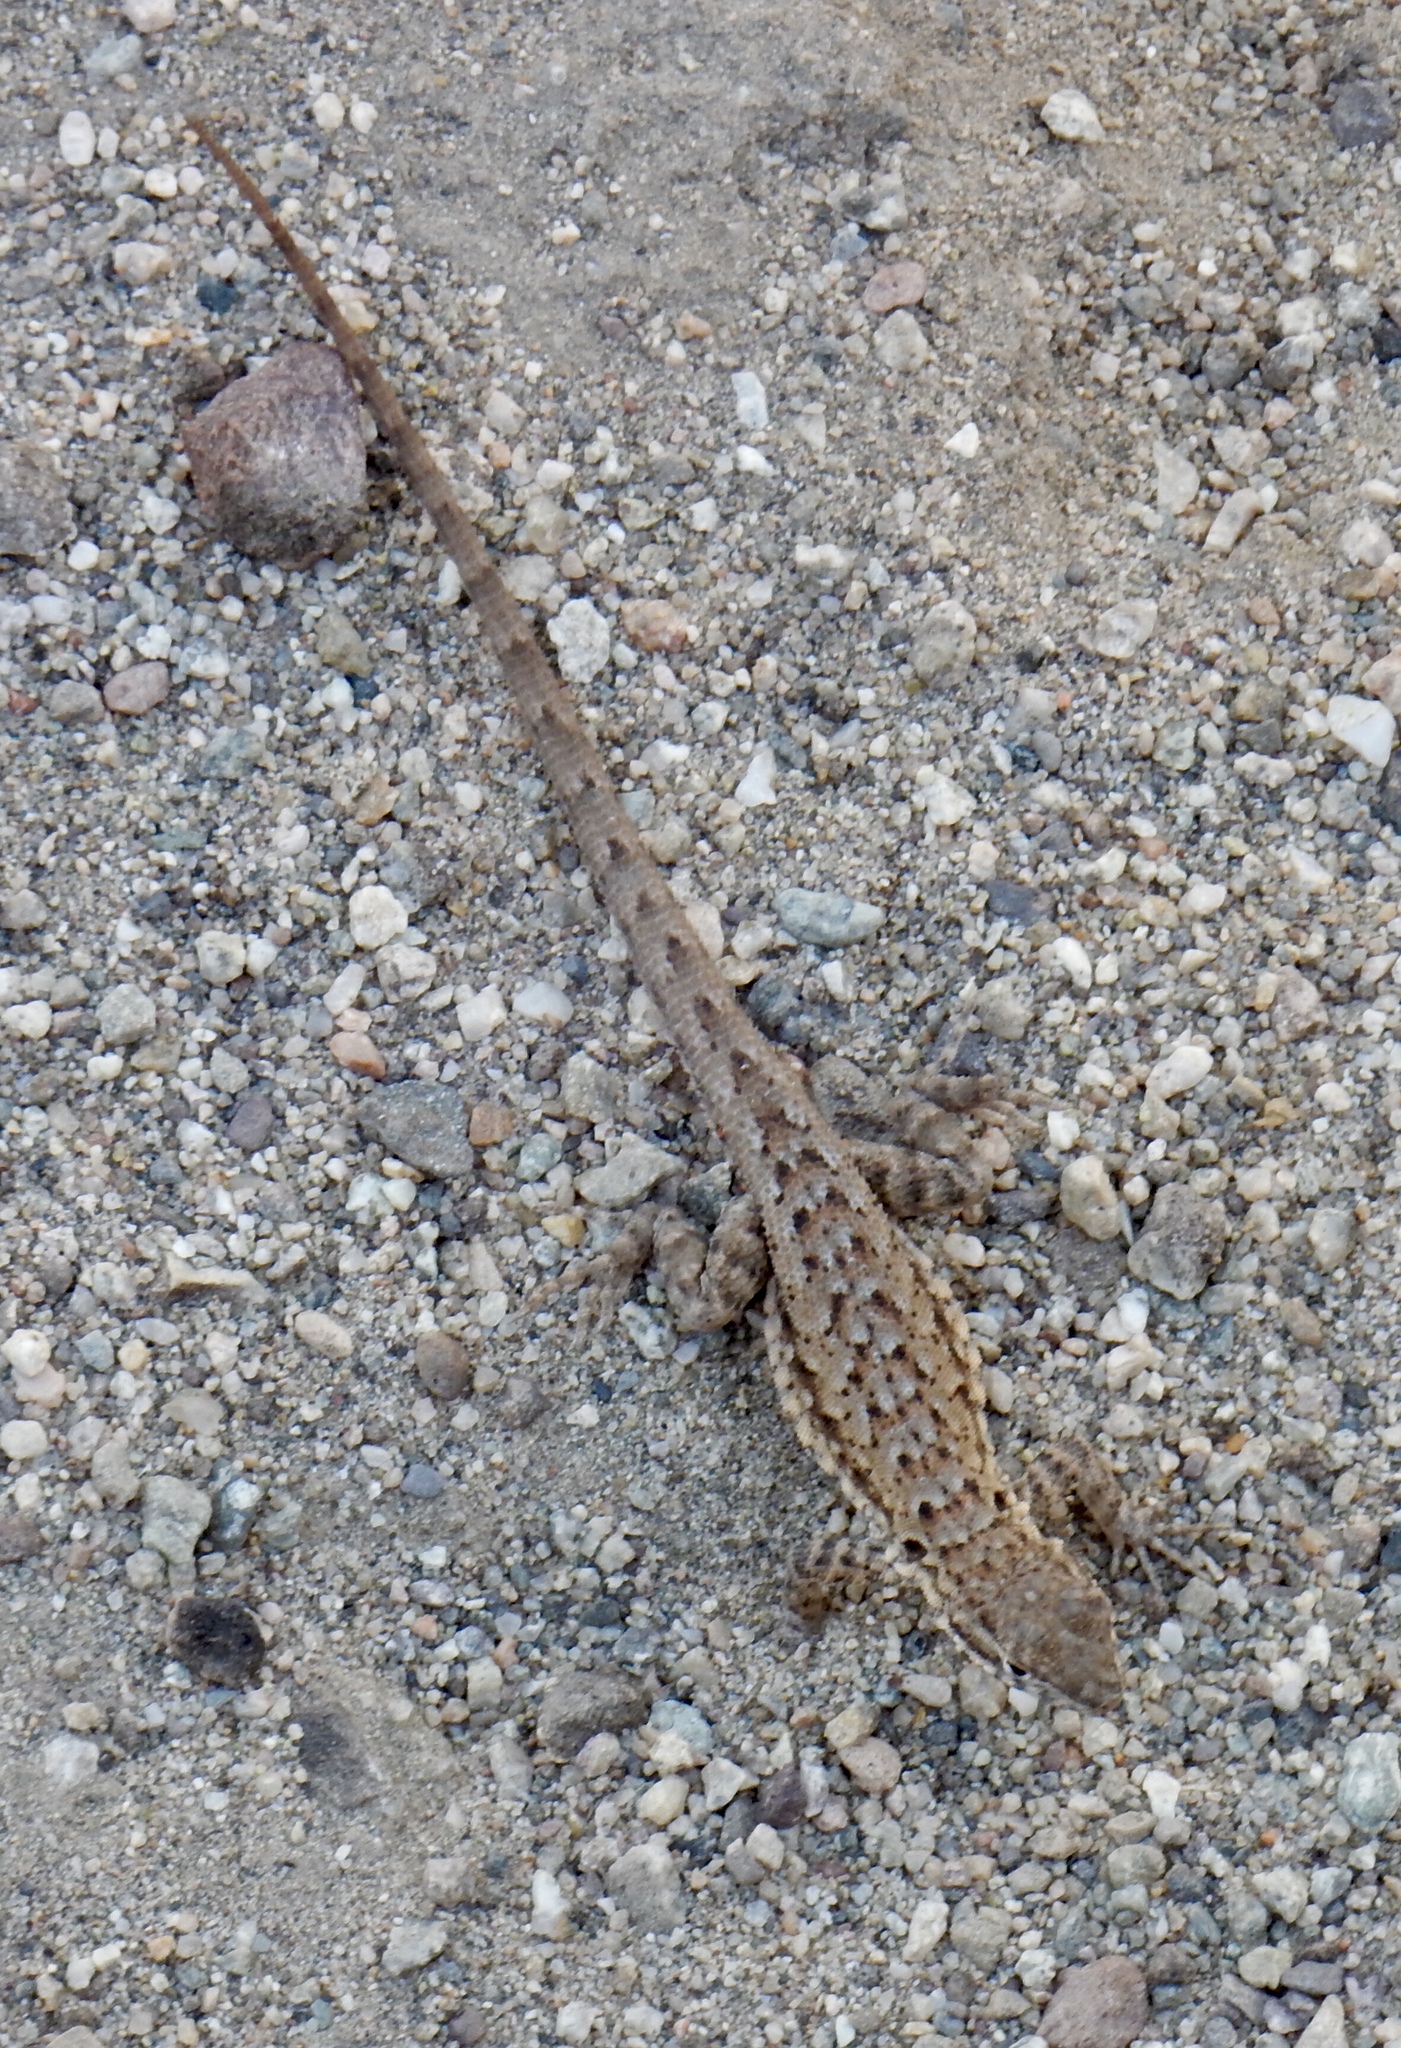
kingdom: Animalia
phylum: Chordata
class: Squamata
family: Phrynosomatidae
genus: Uta
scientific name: Uta stansburiana
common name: Side-blotched lizard
